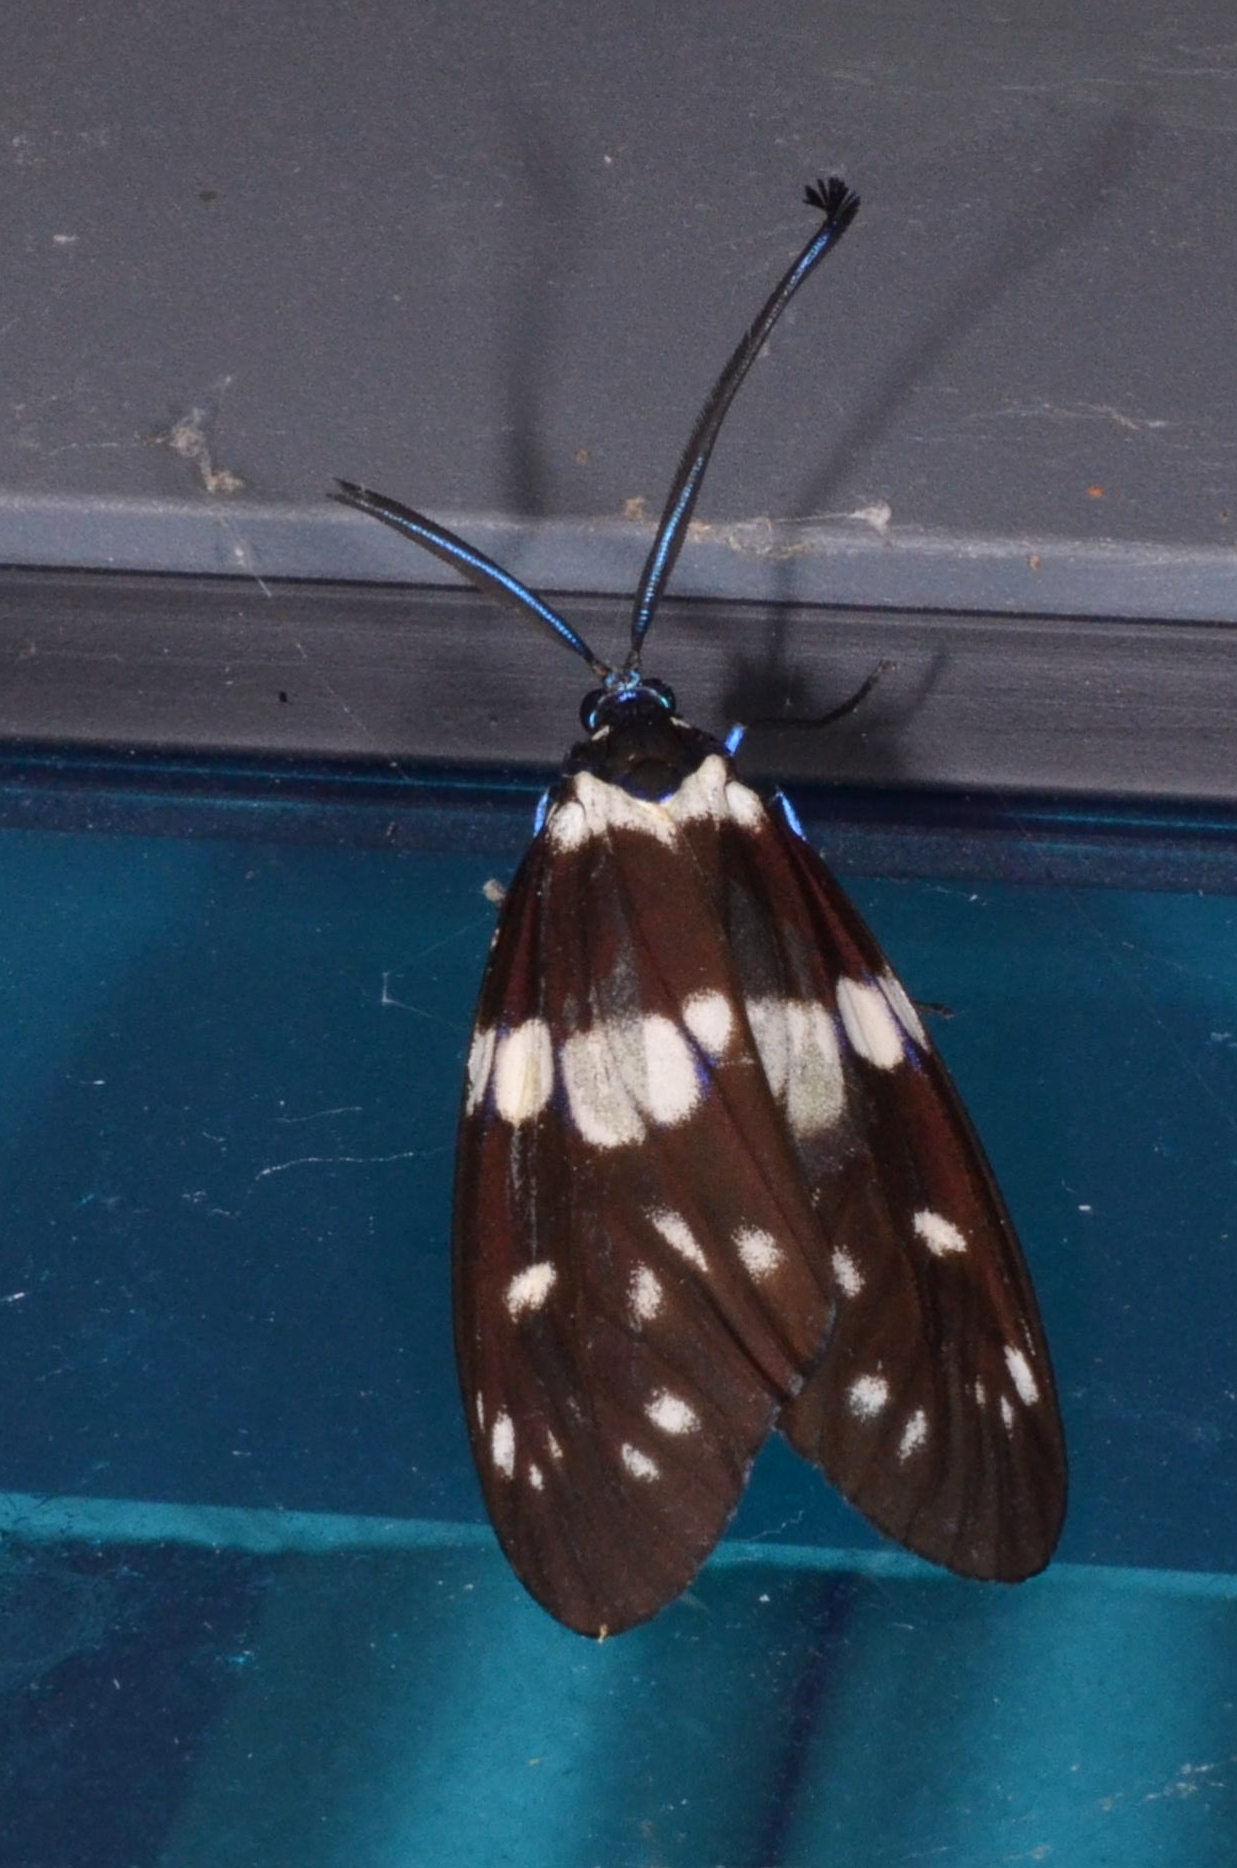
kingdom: Animalia
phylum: Arthropoda
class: Insecta
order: Lepidoptera
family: Zygaenidae
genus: Eterusia
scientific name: Eterusia aedea
